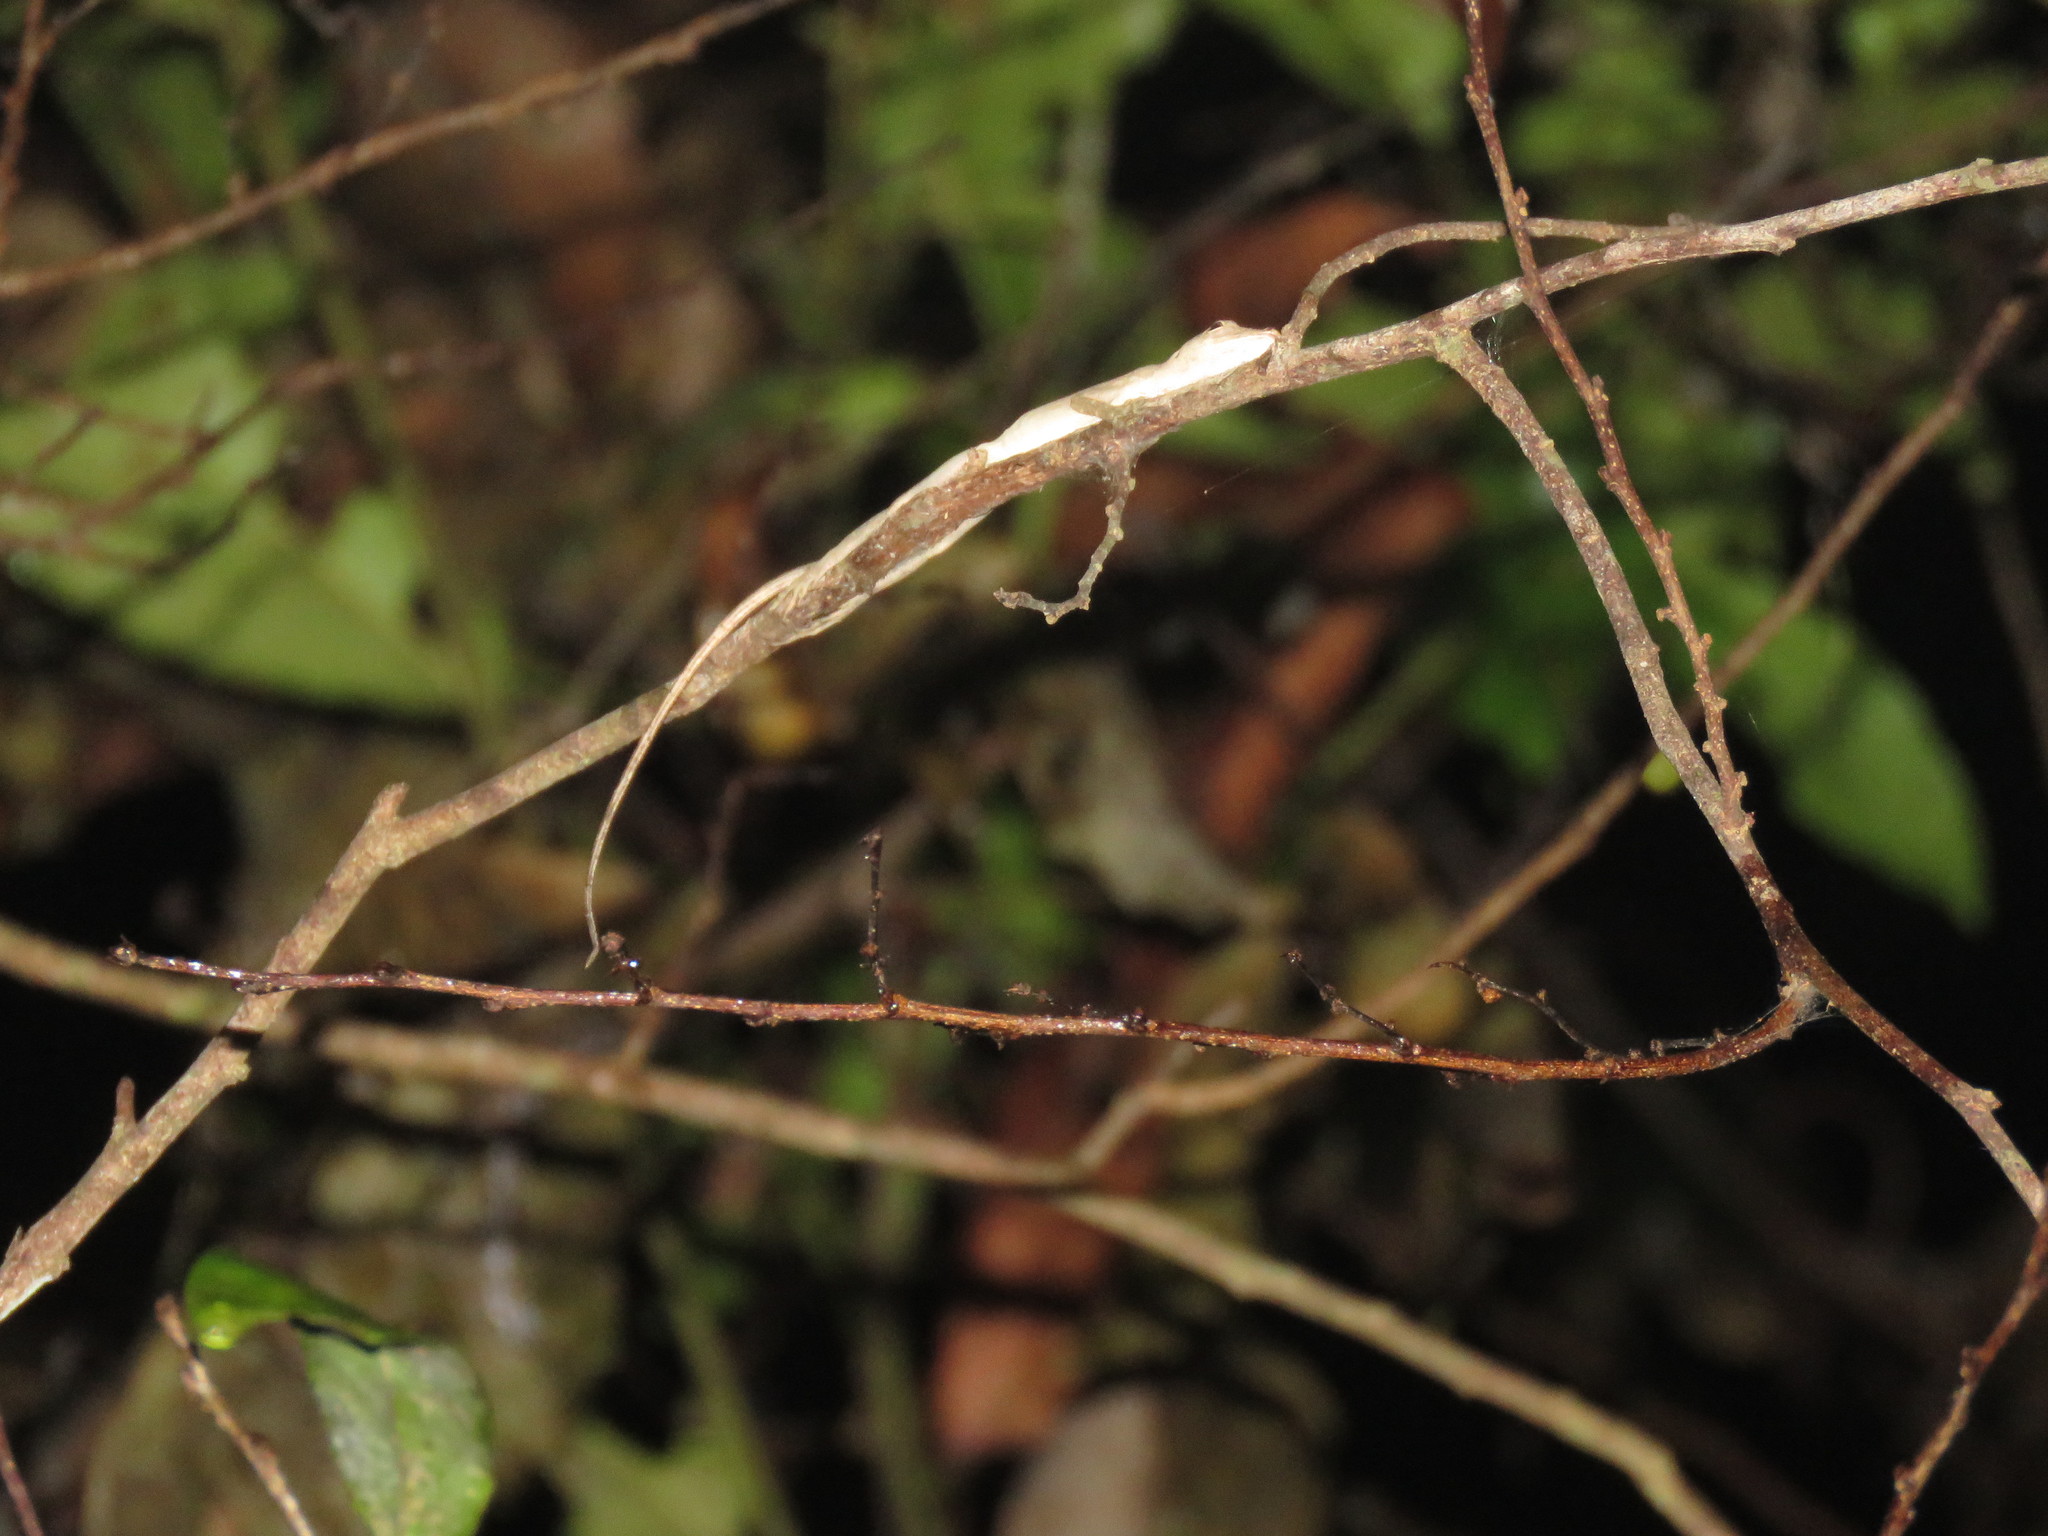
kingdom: Animalia
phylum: Chordata
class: Squamata
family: Dactyloidae
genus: Anolis
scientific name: Anolis fuscoauratus
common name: Brown-eared anole
